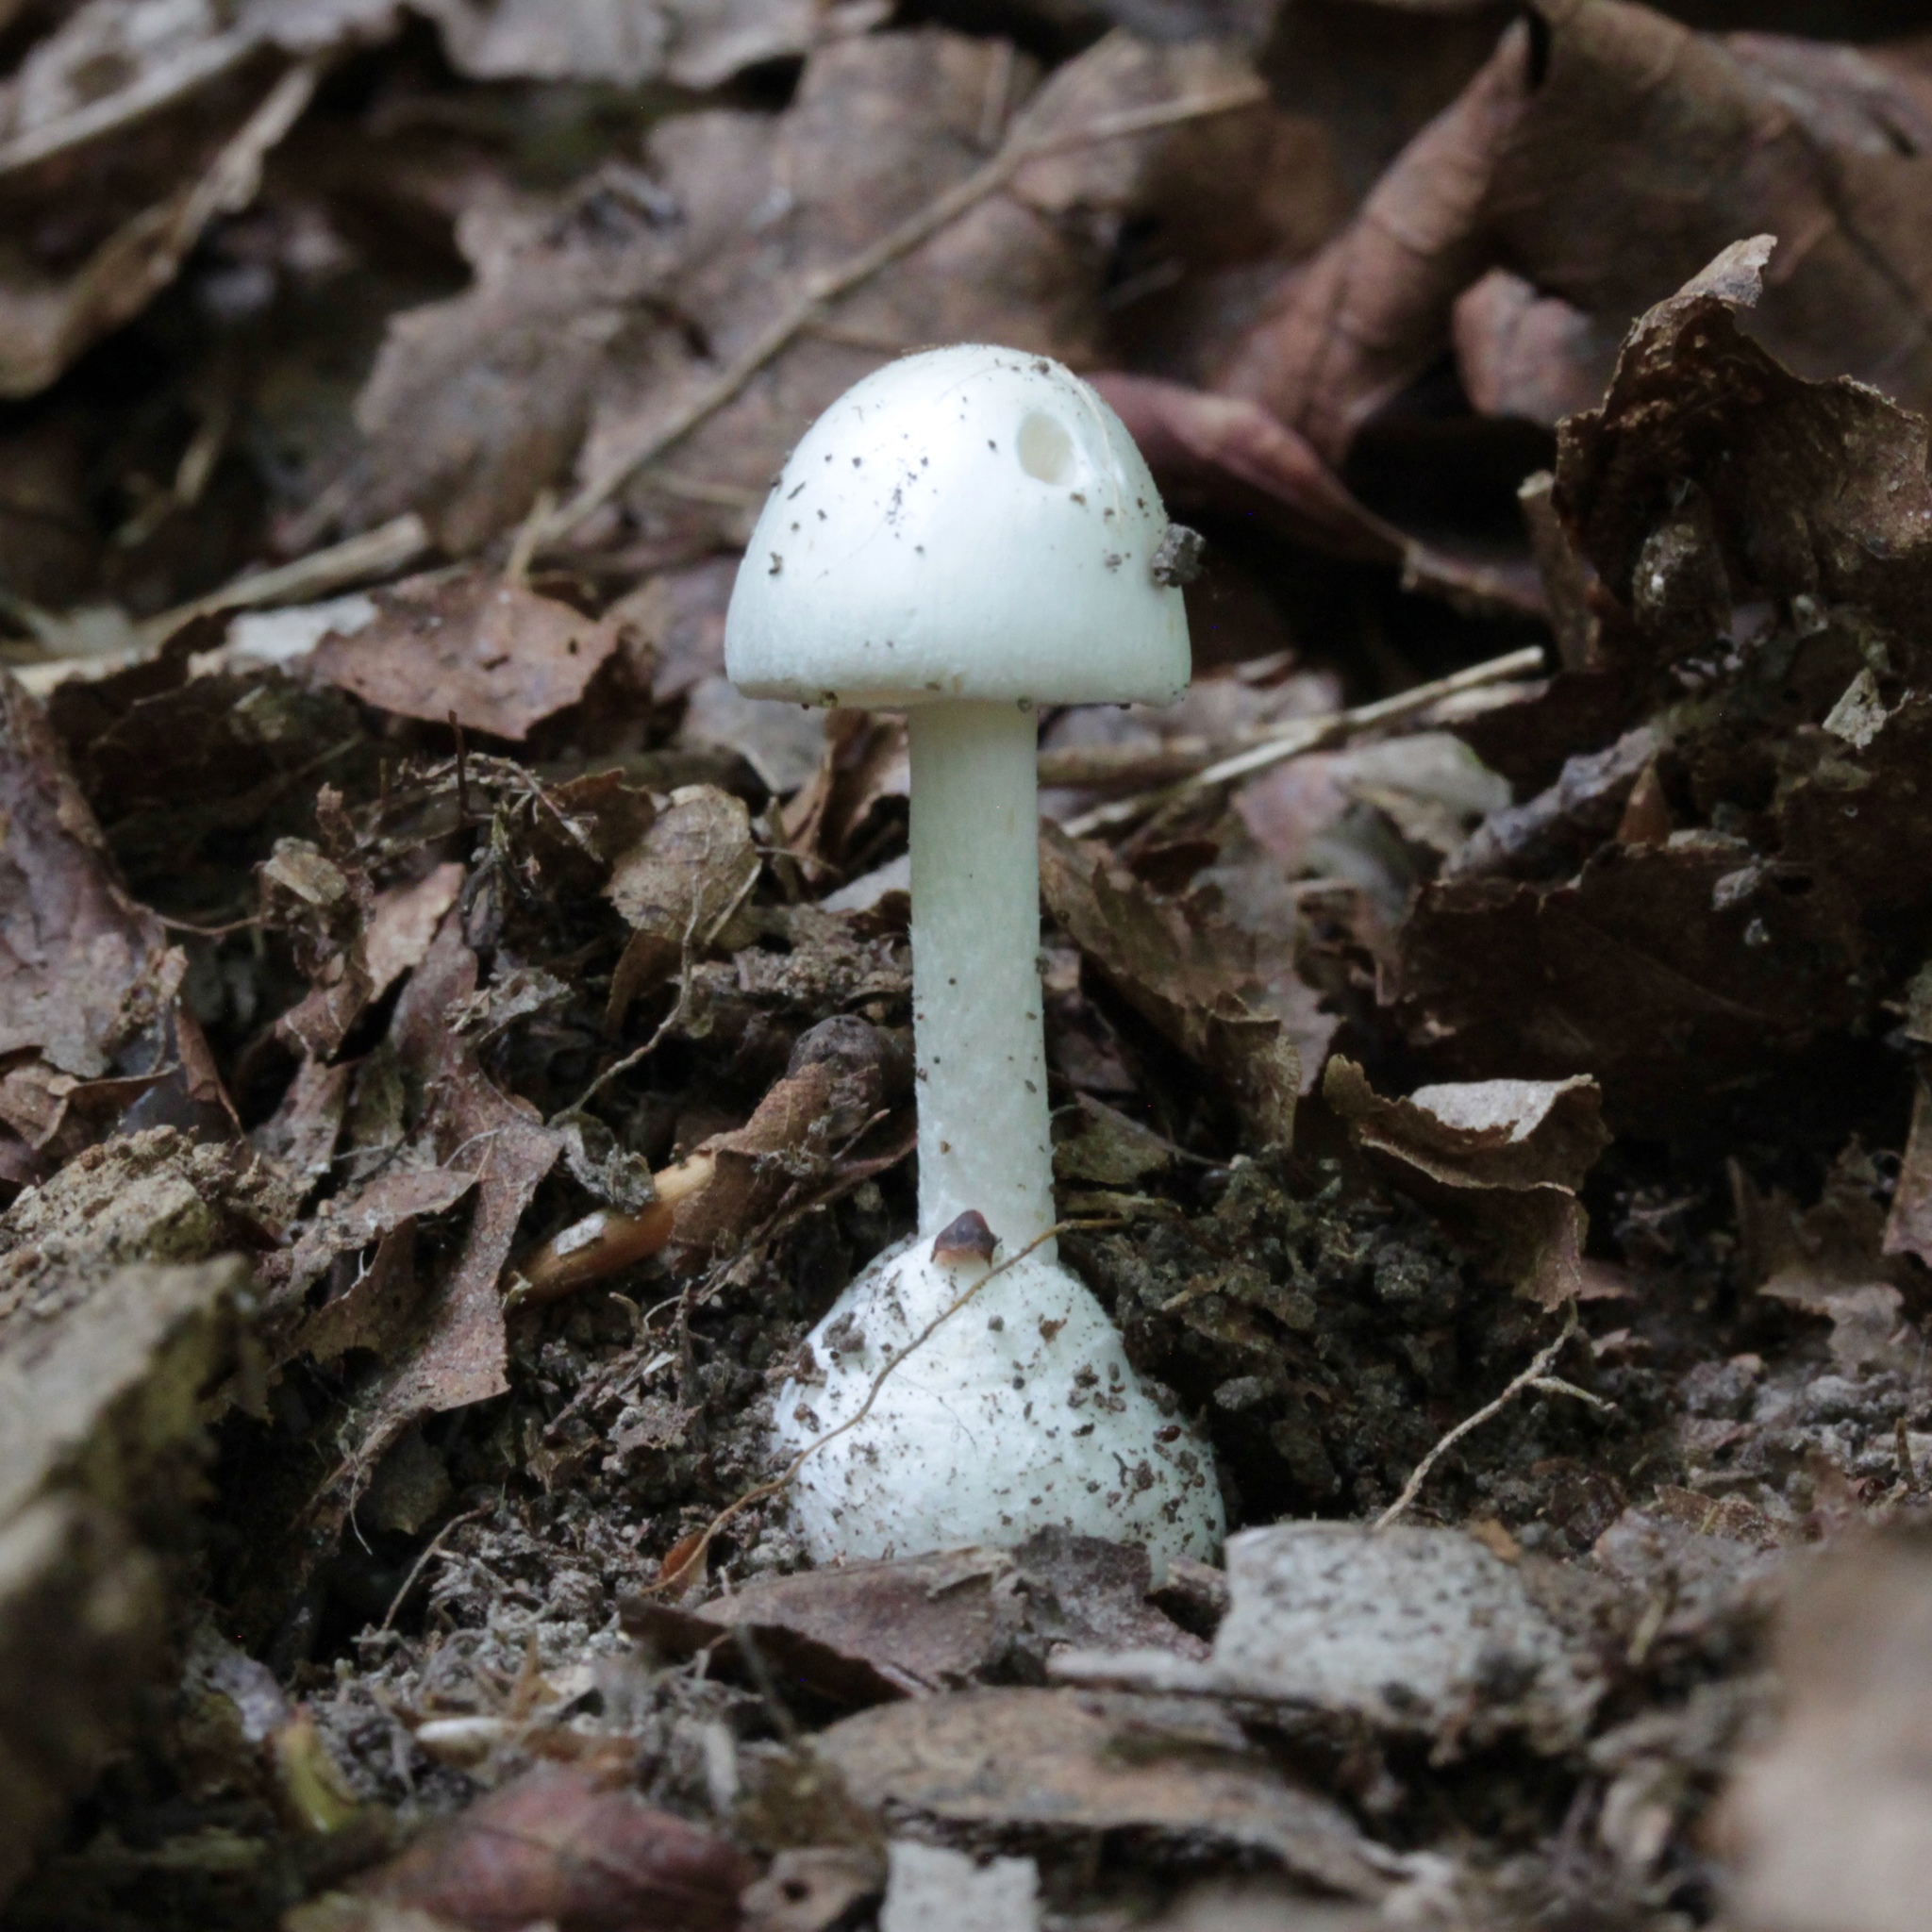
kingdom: Fungi
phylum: Basidiomycota
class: Agaricomycetes
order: Agaricales
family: Amanitaceae
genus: Amanita
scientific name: Amanita bisporigera
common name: Eastern north american destroying angel
